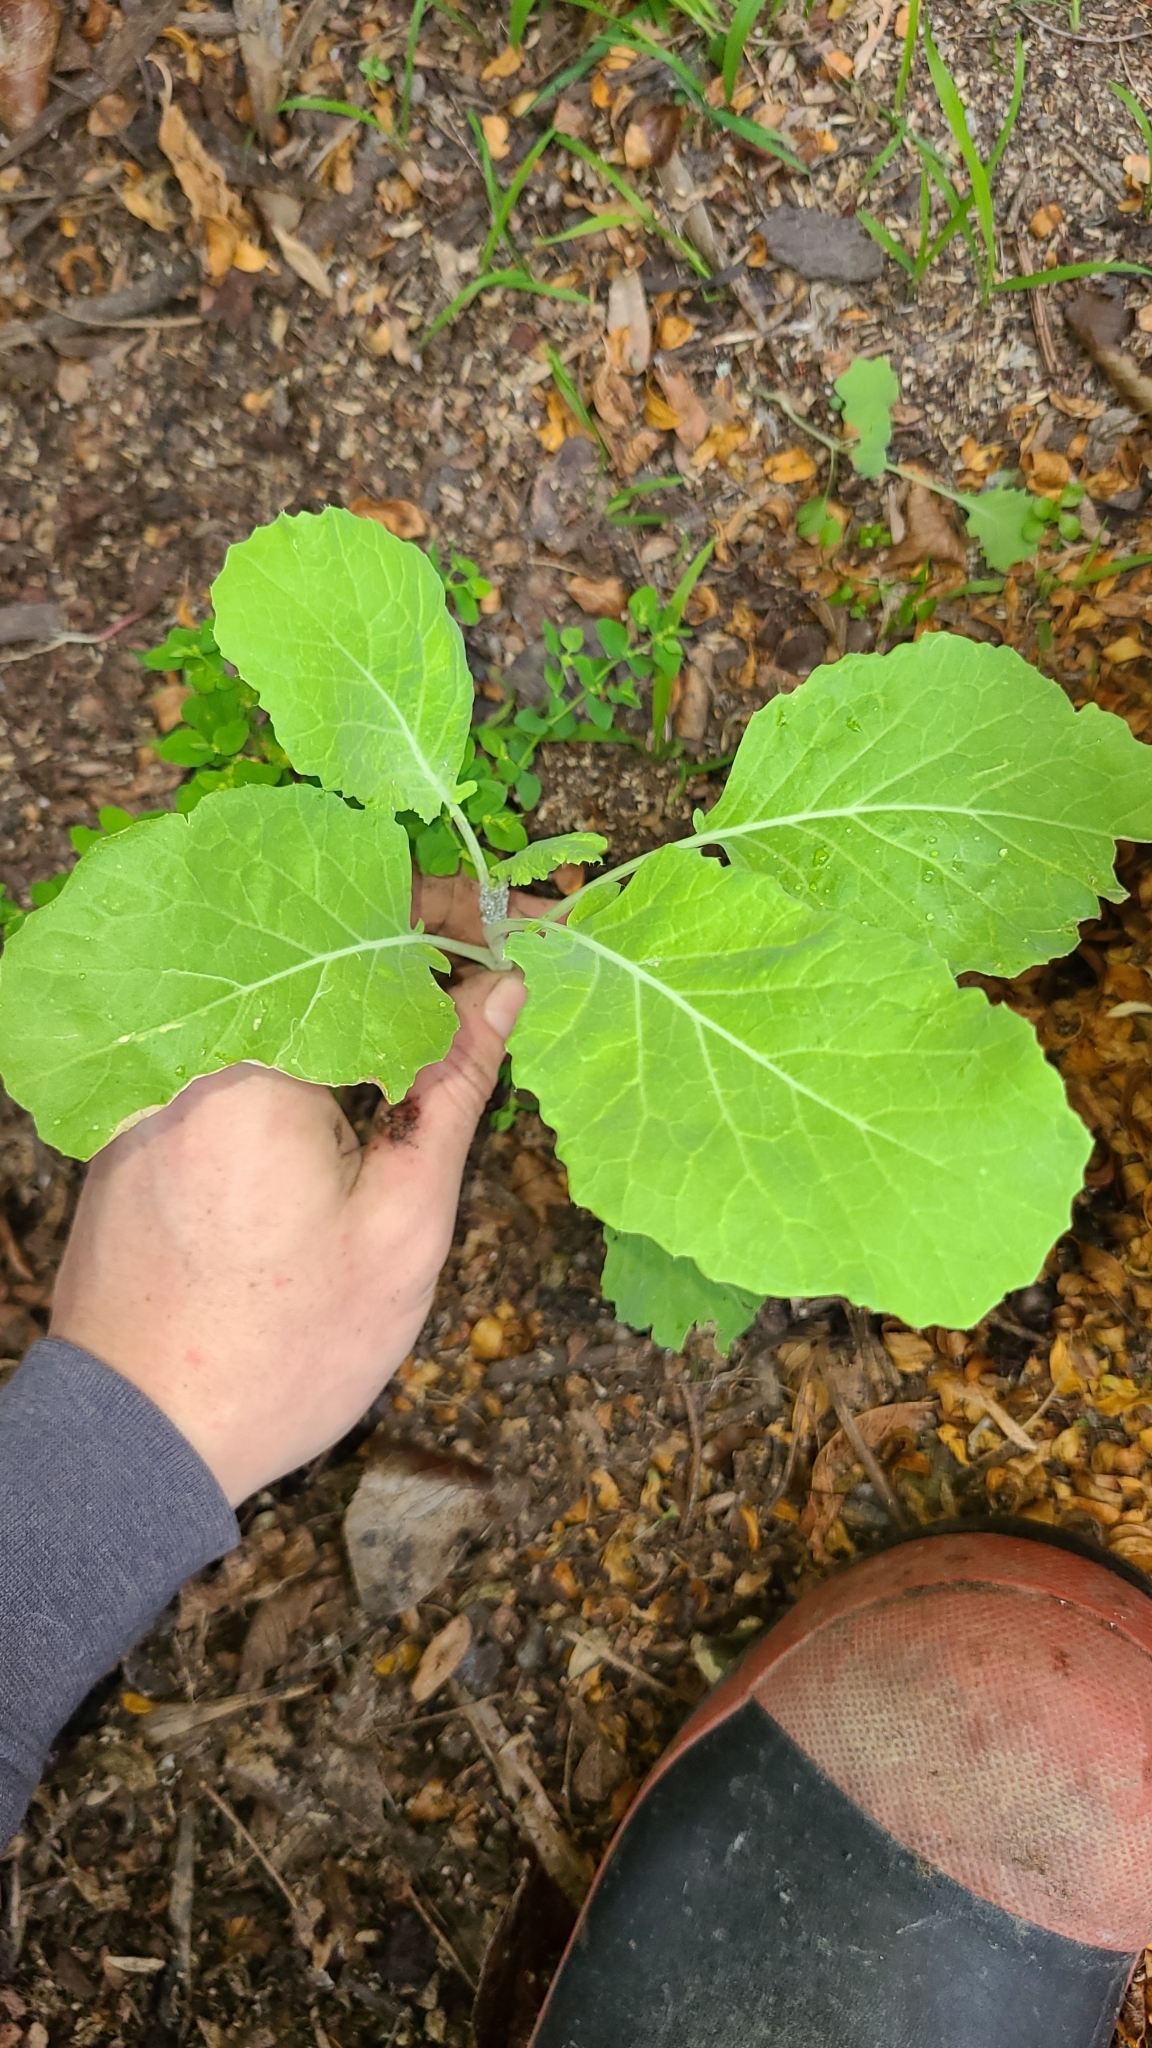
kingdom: Animalia
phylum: Arthropoda
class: Insecta
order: Hemiptera
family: Aphididae
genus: Brevicoryne
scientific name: Brevicoryne brassicae
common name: Cabbage aphid
